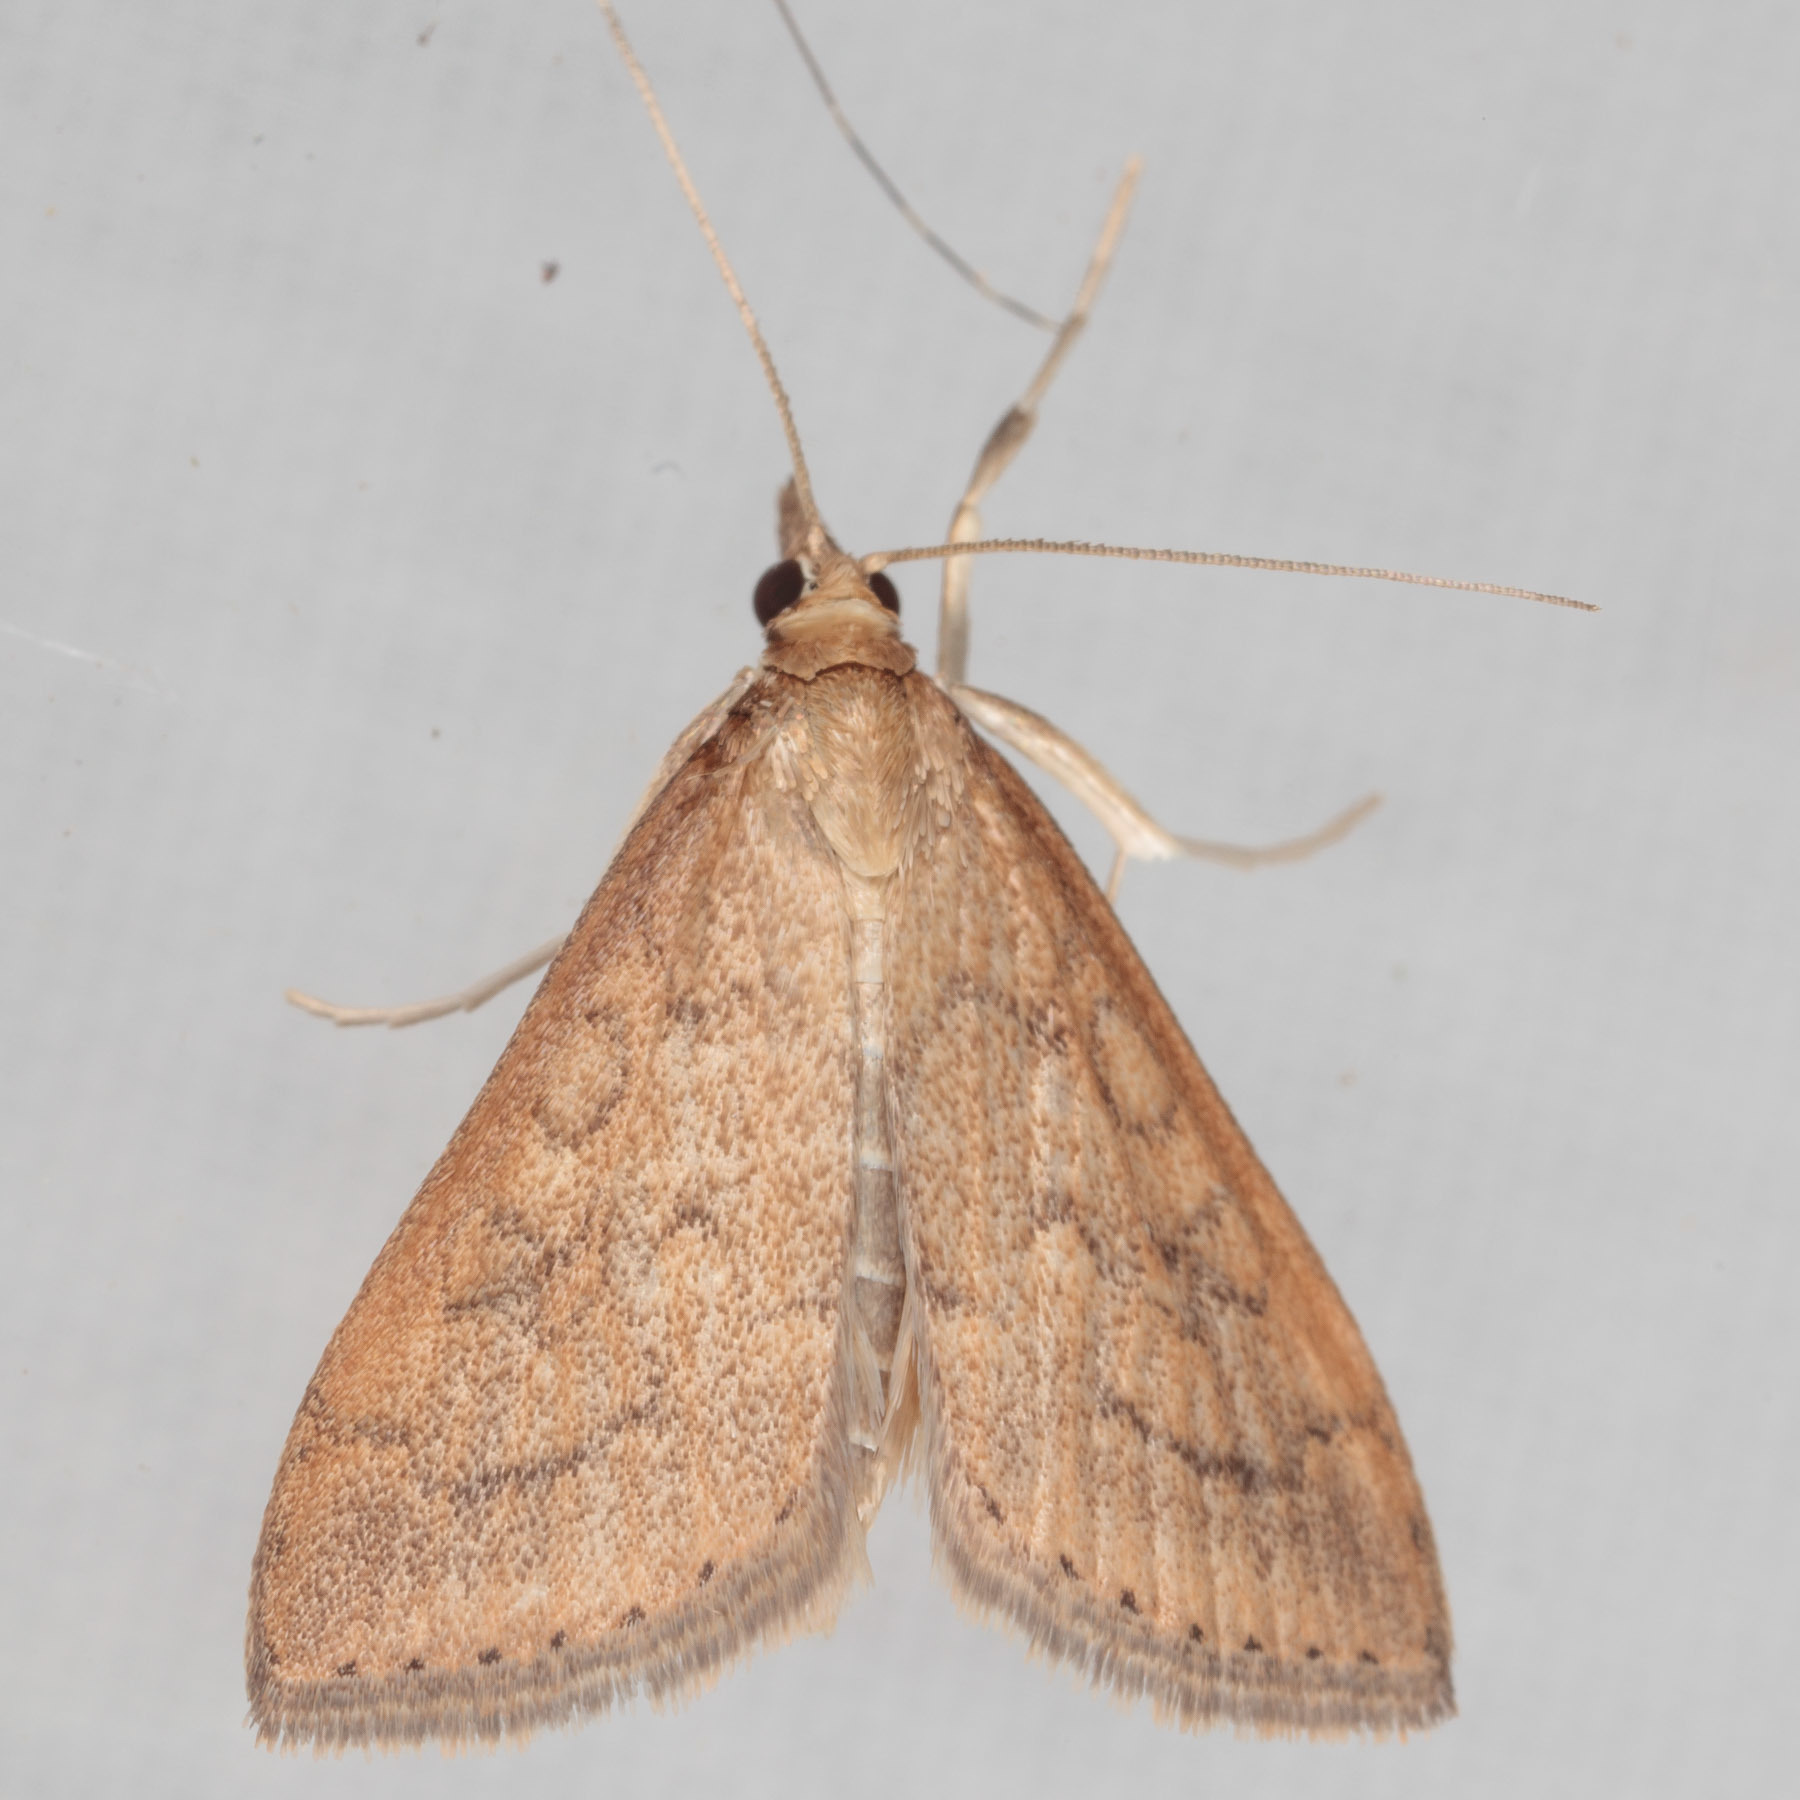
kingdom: Animalia
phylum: Arthropoda
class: Insecta
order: Lepidoptera
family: Crambidae
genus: Udea
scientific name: Udea rubigalis
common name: Celery leaftier moth
